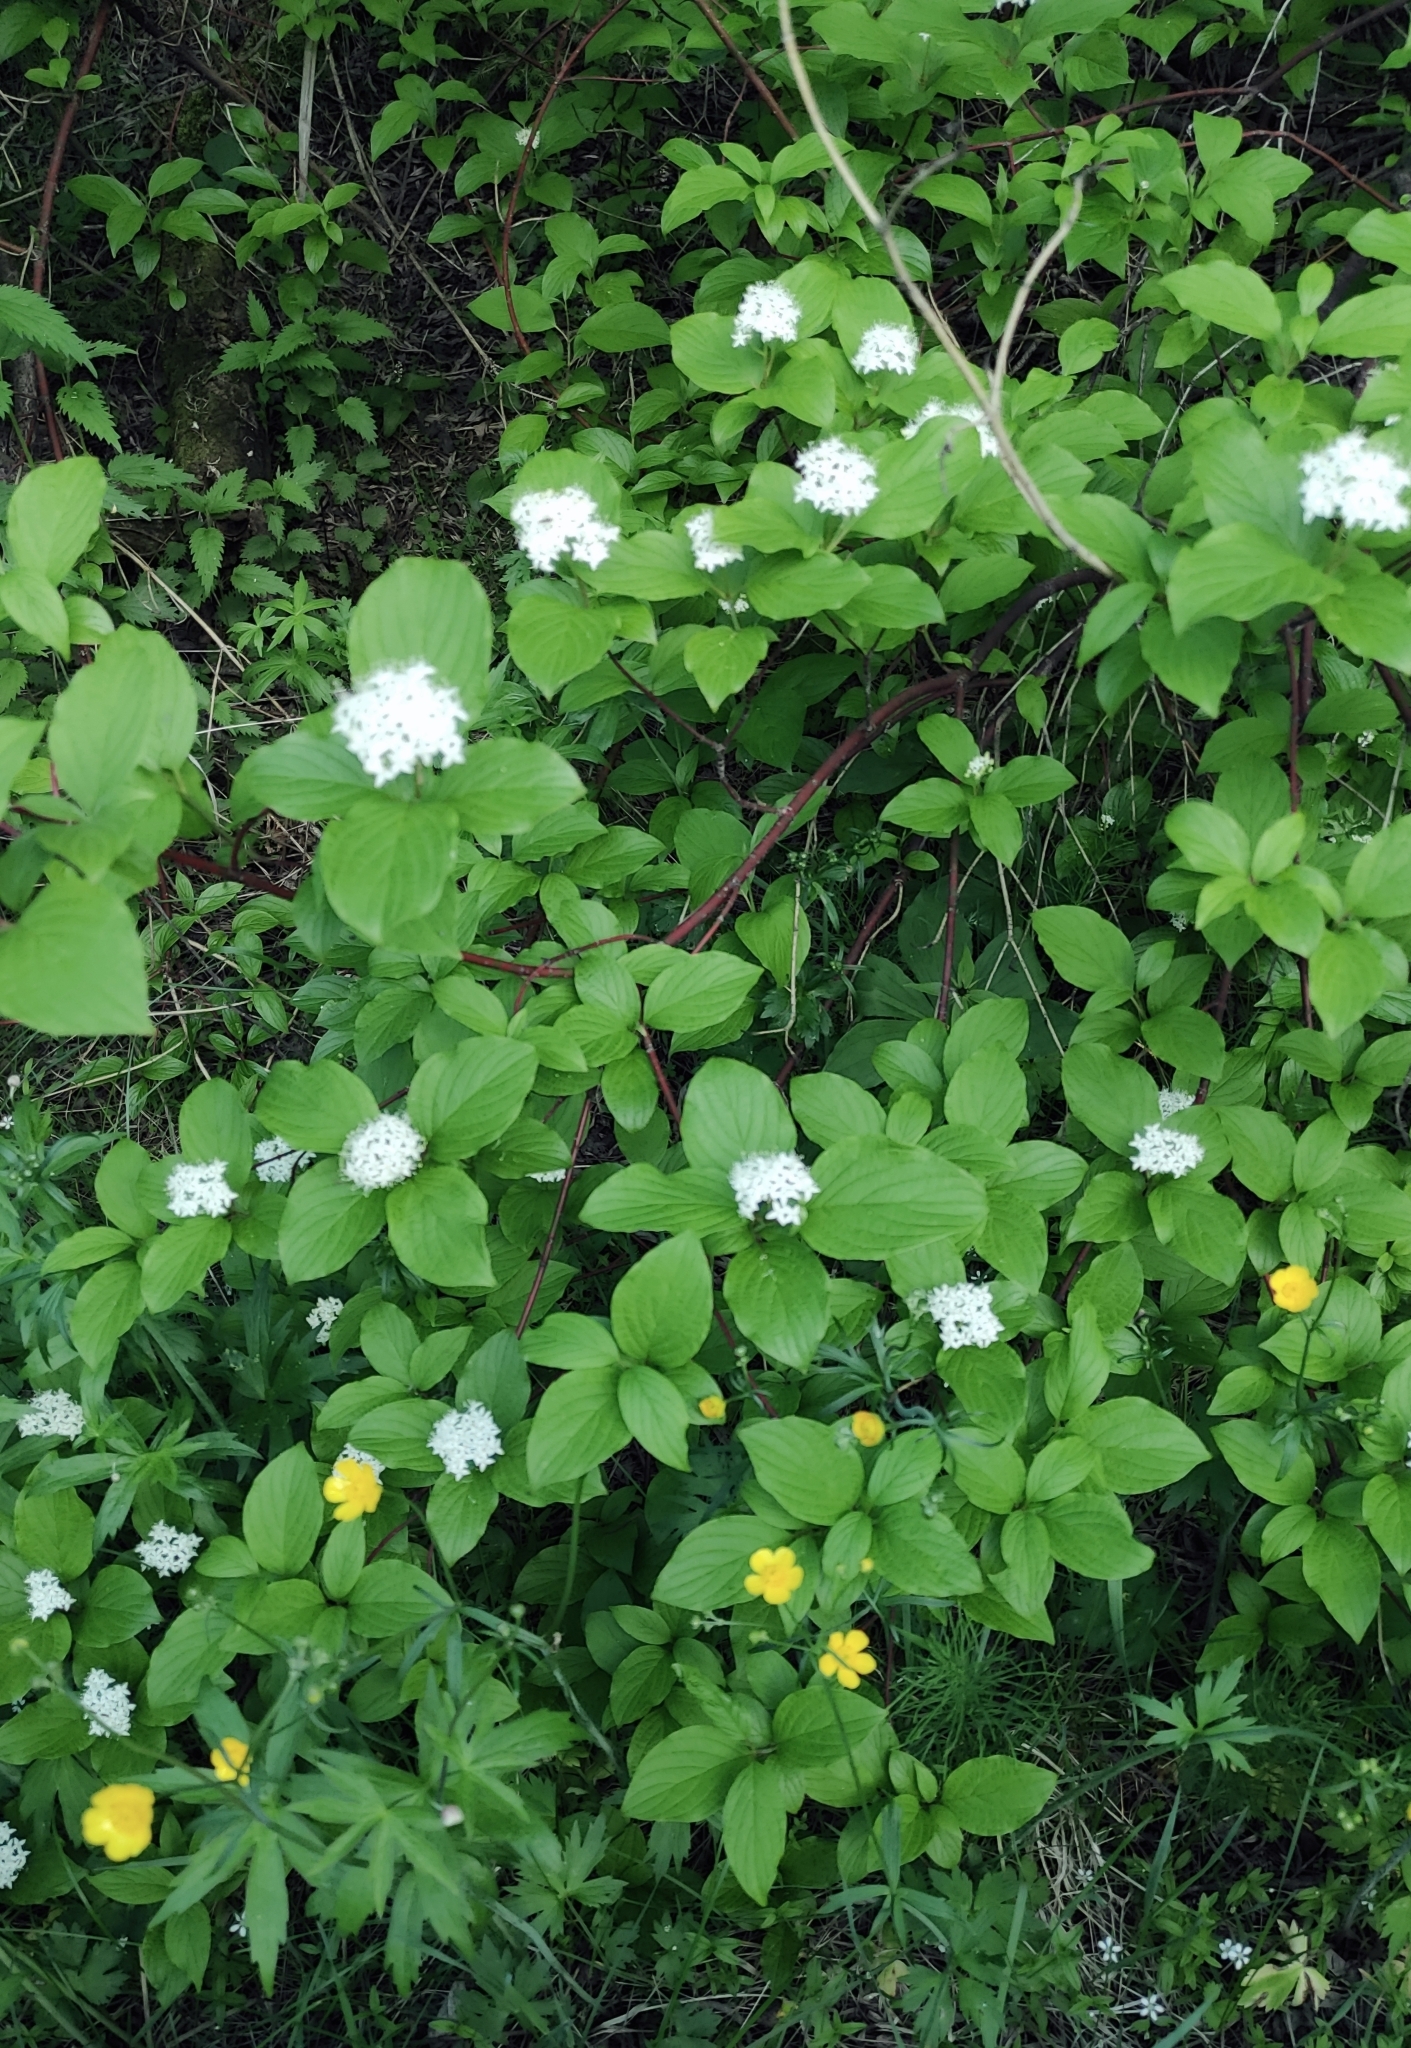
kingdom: Plantae
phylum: Tracheophyta
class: Magnoliopsida
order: Cornales
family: Cornaceae
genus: Cornus
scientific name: Cornus alba
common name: White dogwood
